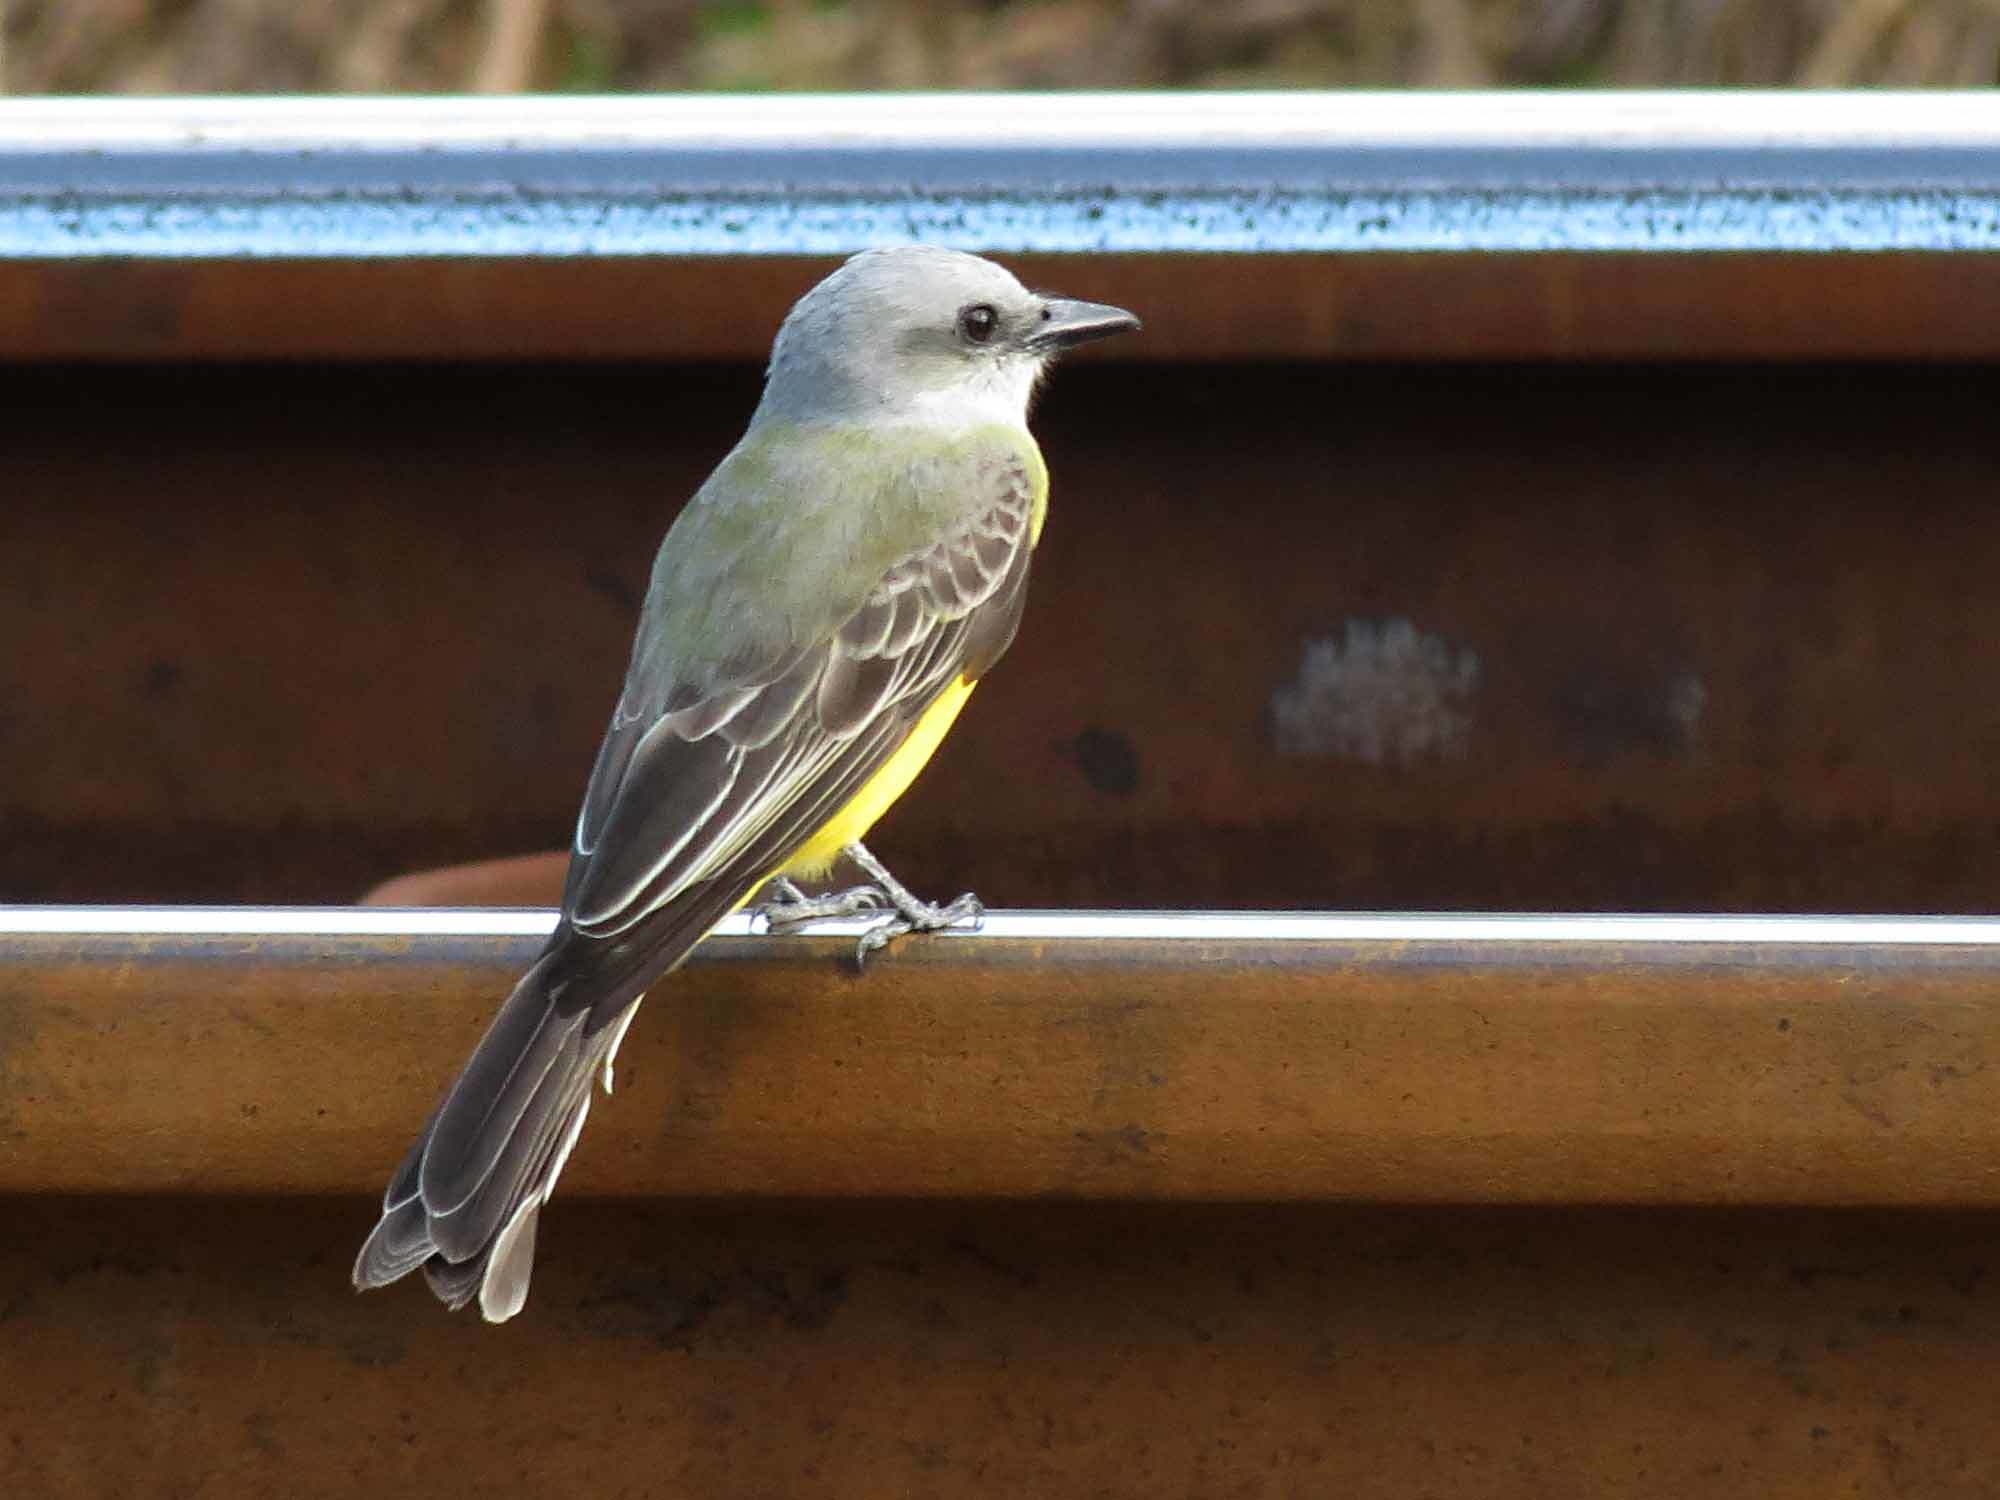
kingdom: Animalia
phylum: Chordata
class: Aves
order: Passeriformes
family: Tyrannidae
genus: Tyrannus
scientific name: Tyrannus melancholicus
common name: Tropical kingbird
